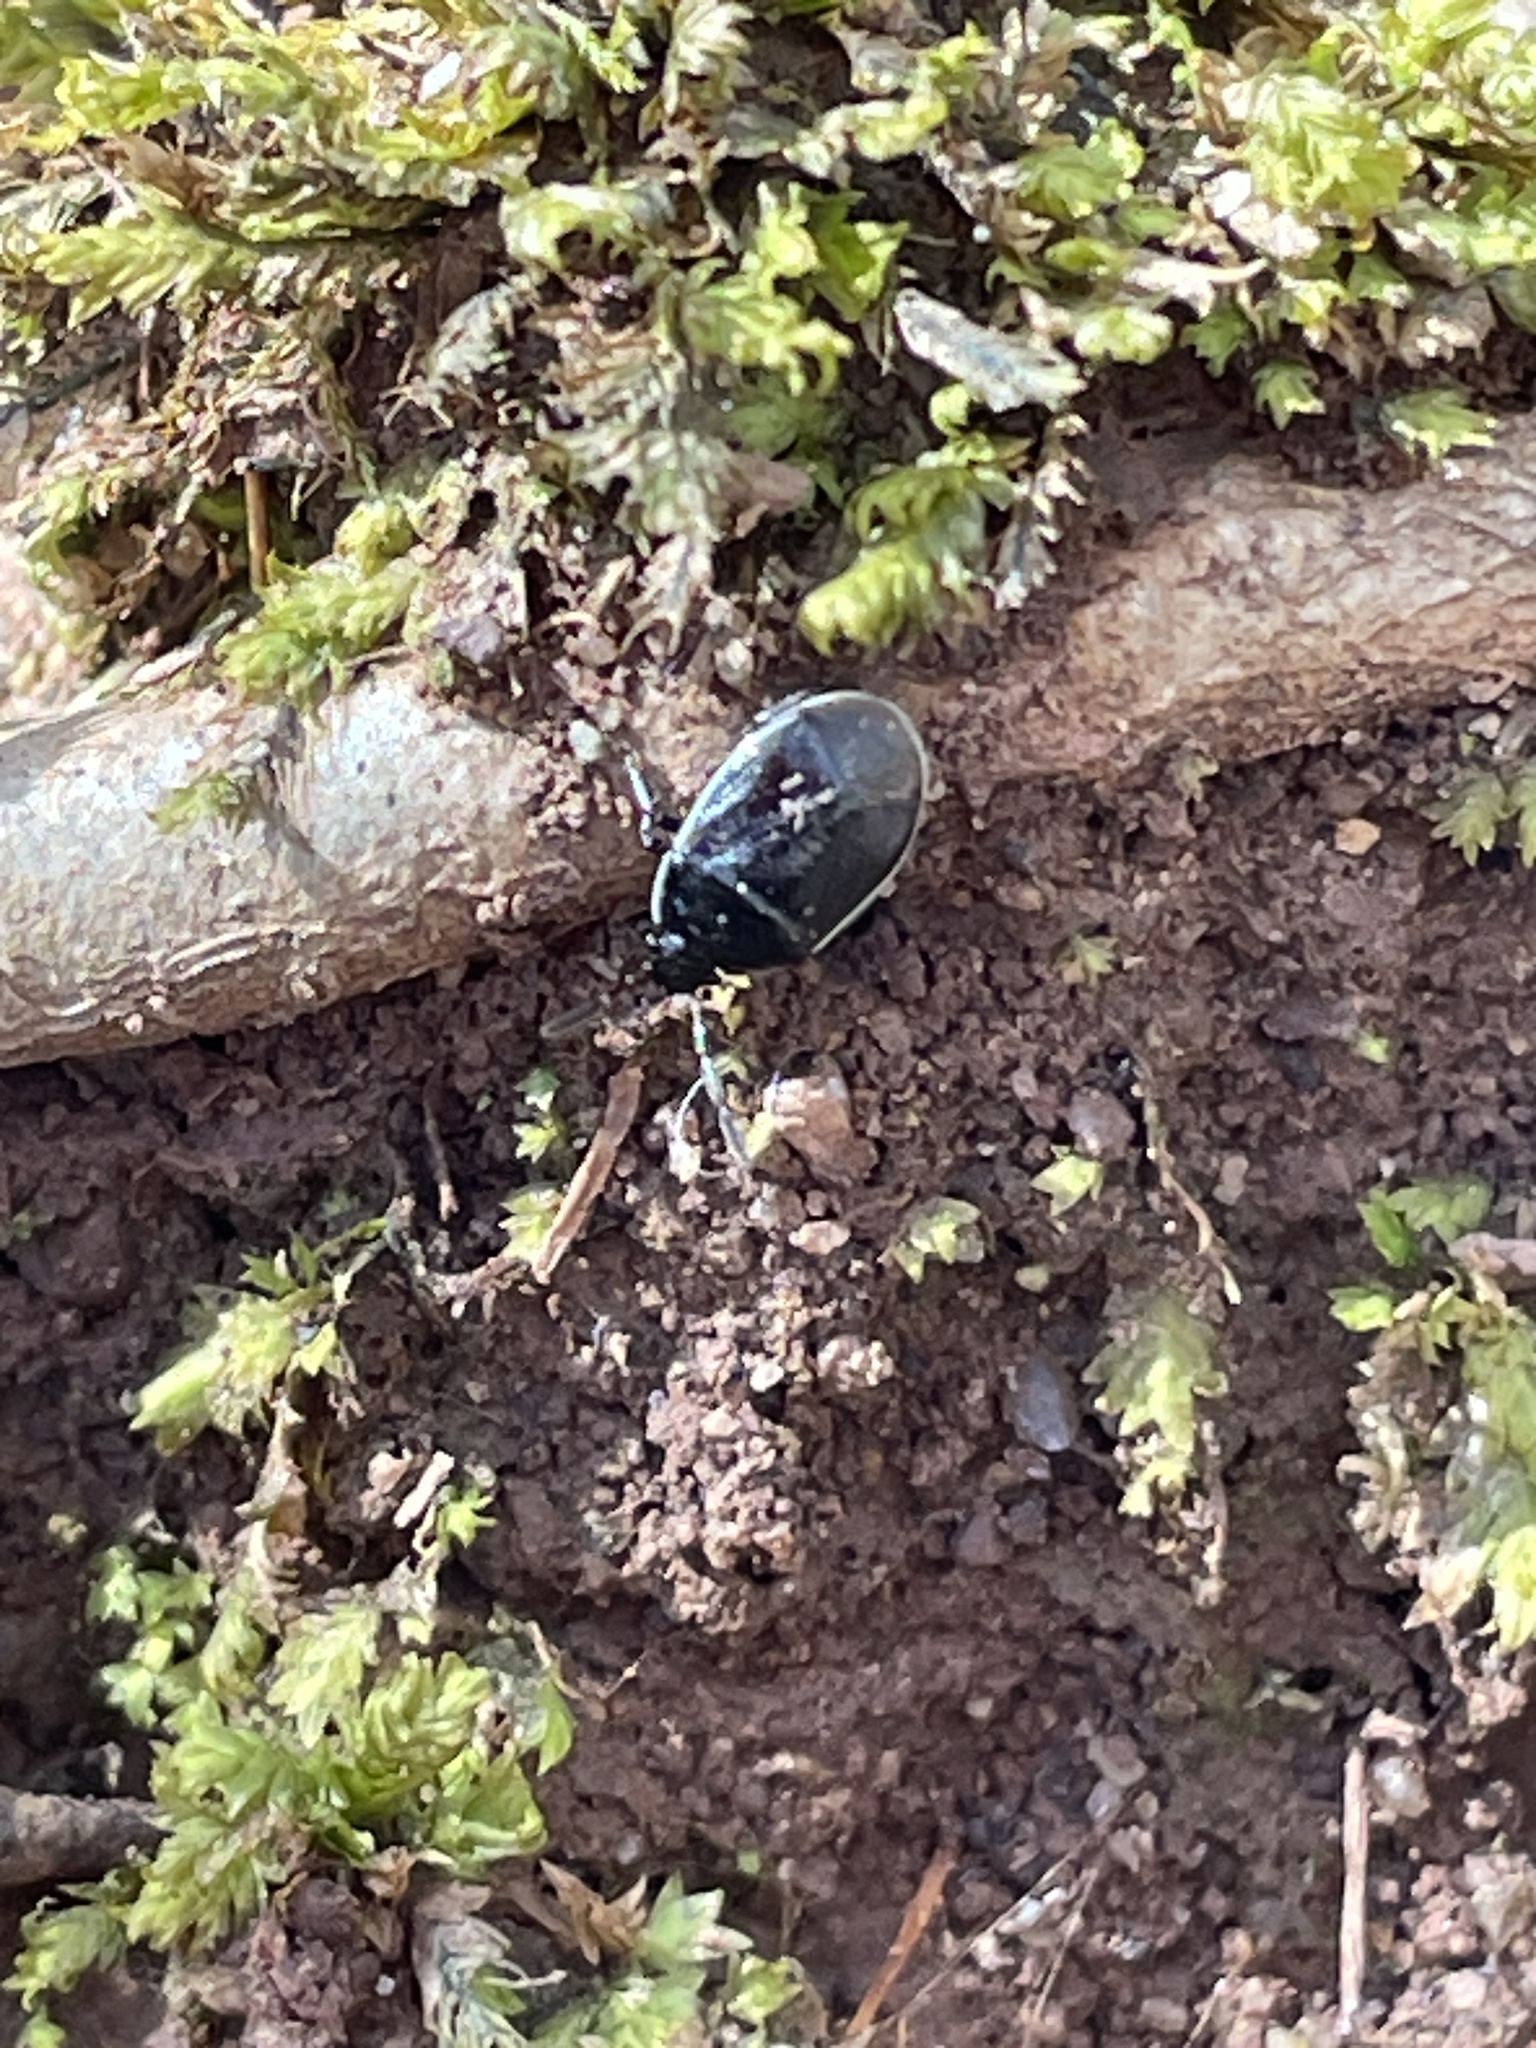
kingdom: Animalia
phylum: Arthropoda
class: Insecta
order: Hemiptera
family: Cydnidae
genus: Sehirus
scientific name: Sehirus cinctus
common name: White-margined burrower bug
